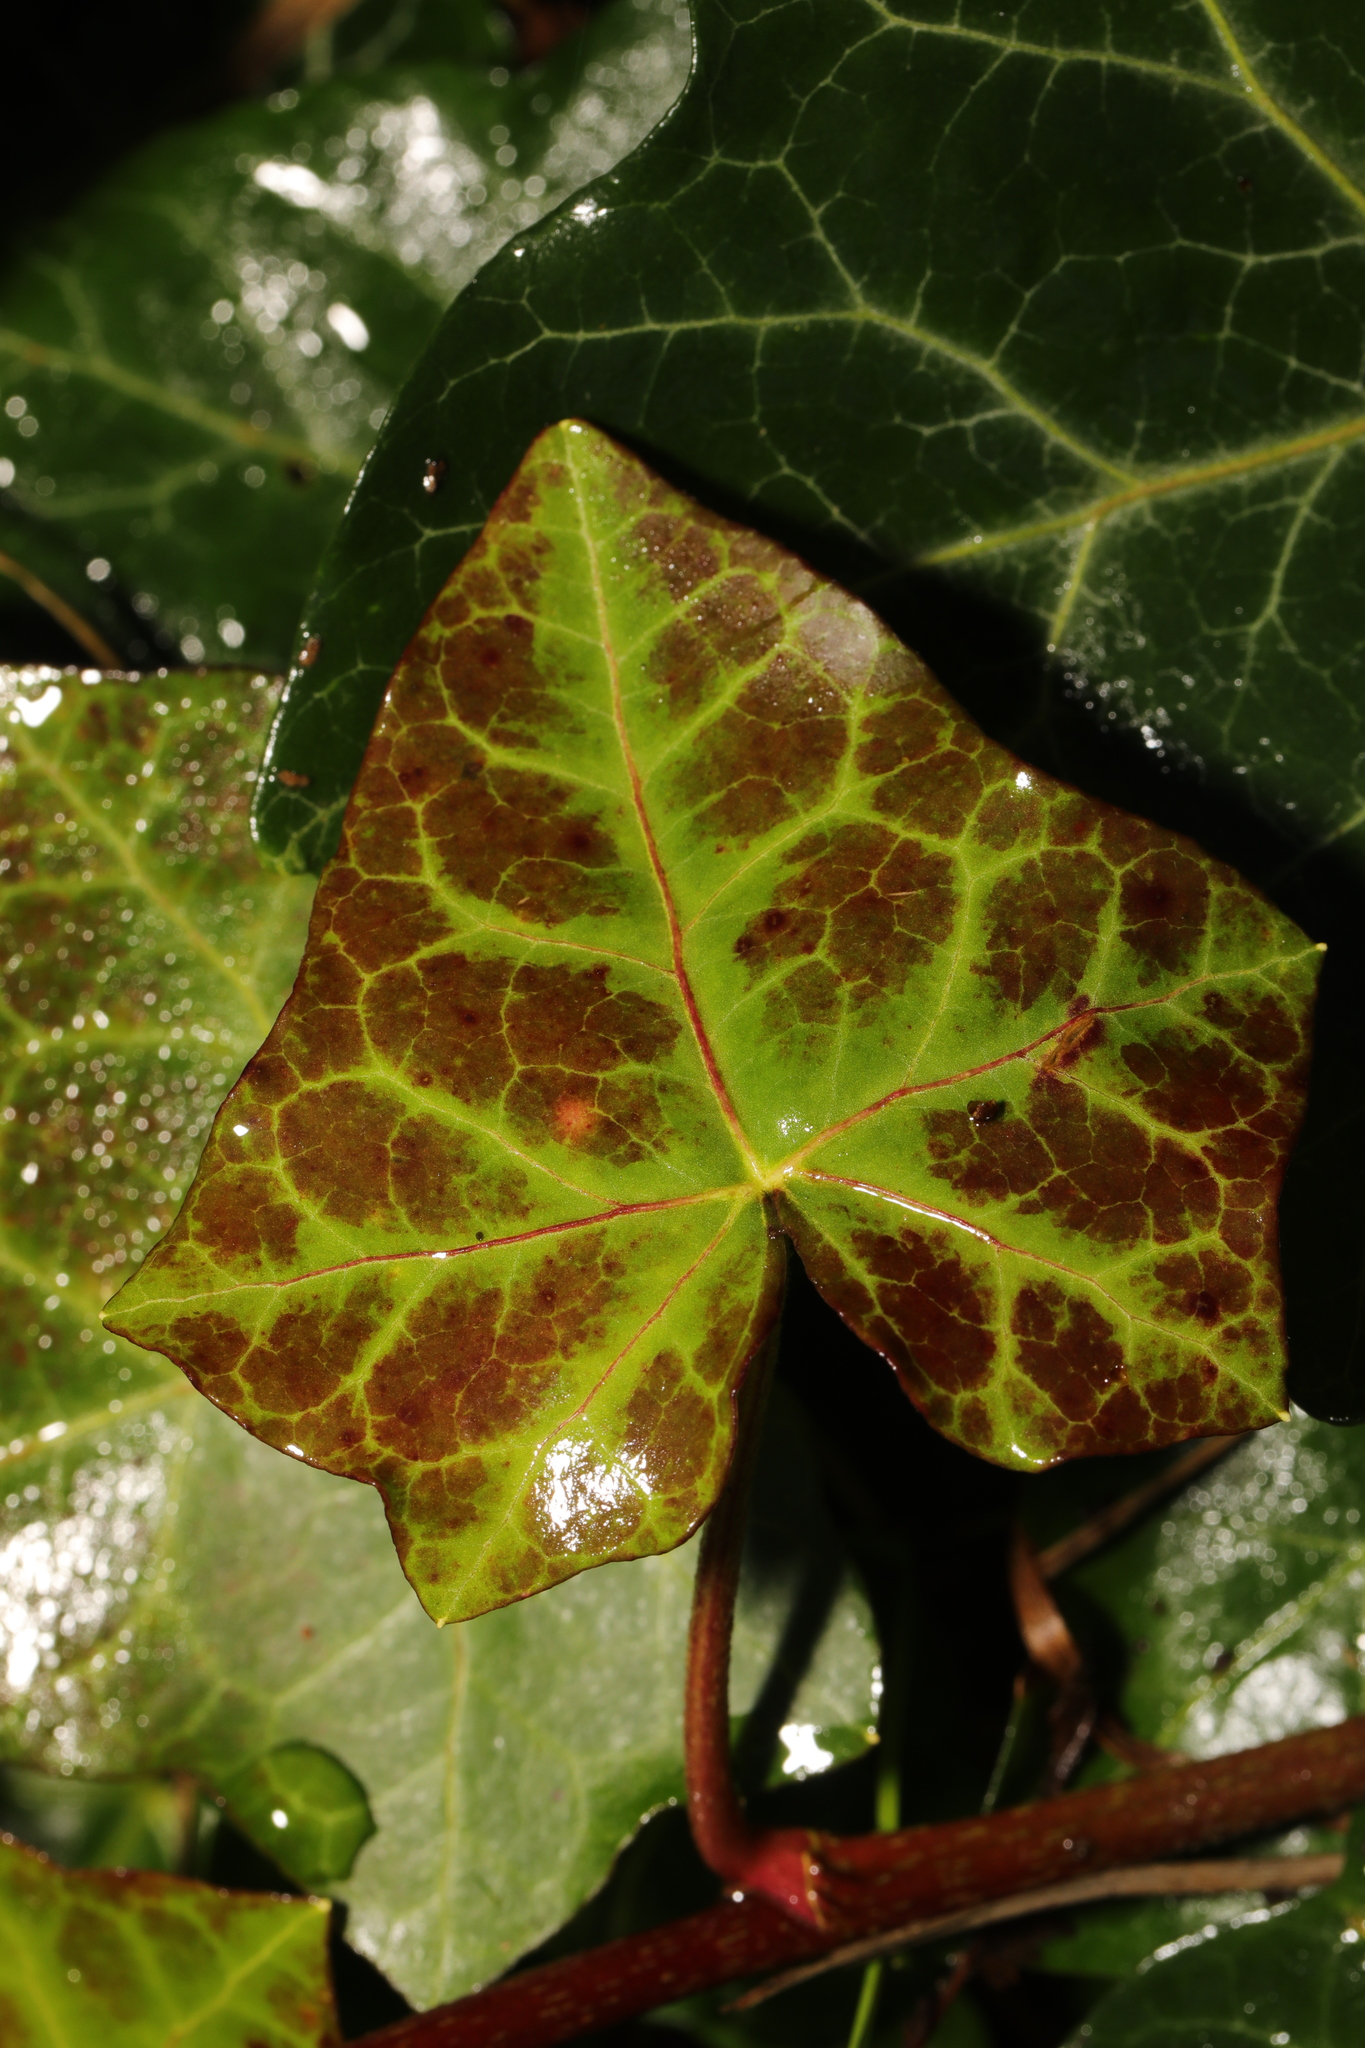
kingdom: Plantae
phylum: Tracheophyta
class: Magnoliopsida
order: Apiales
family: Araliaceae
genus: Hedera
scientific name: Hedera helix
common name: Ivy
